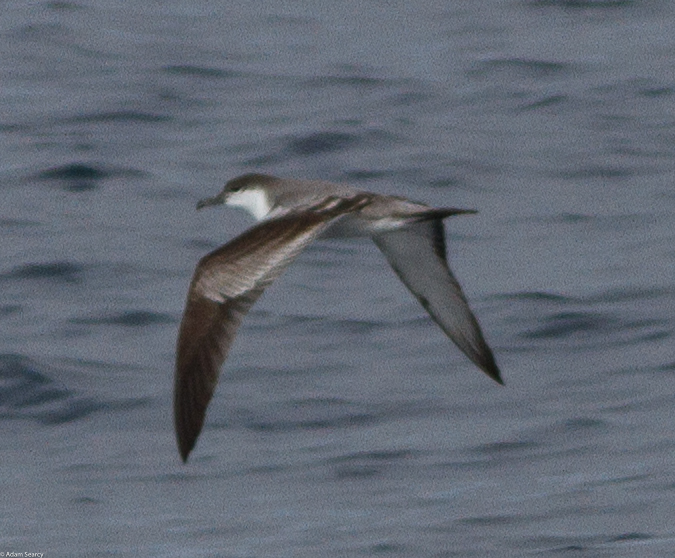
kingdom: Animalia
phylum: Chordata
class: Aves
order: Procellariiformes
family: Procellariidae
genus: Puffinus
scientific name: Puffinus bulleri
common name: Buller's shearwater
